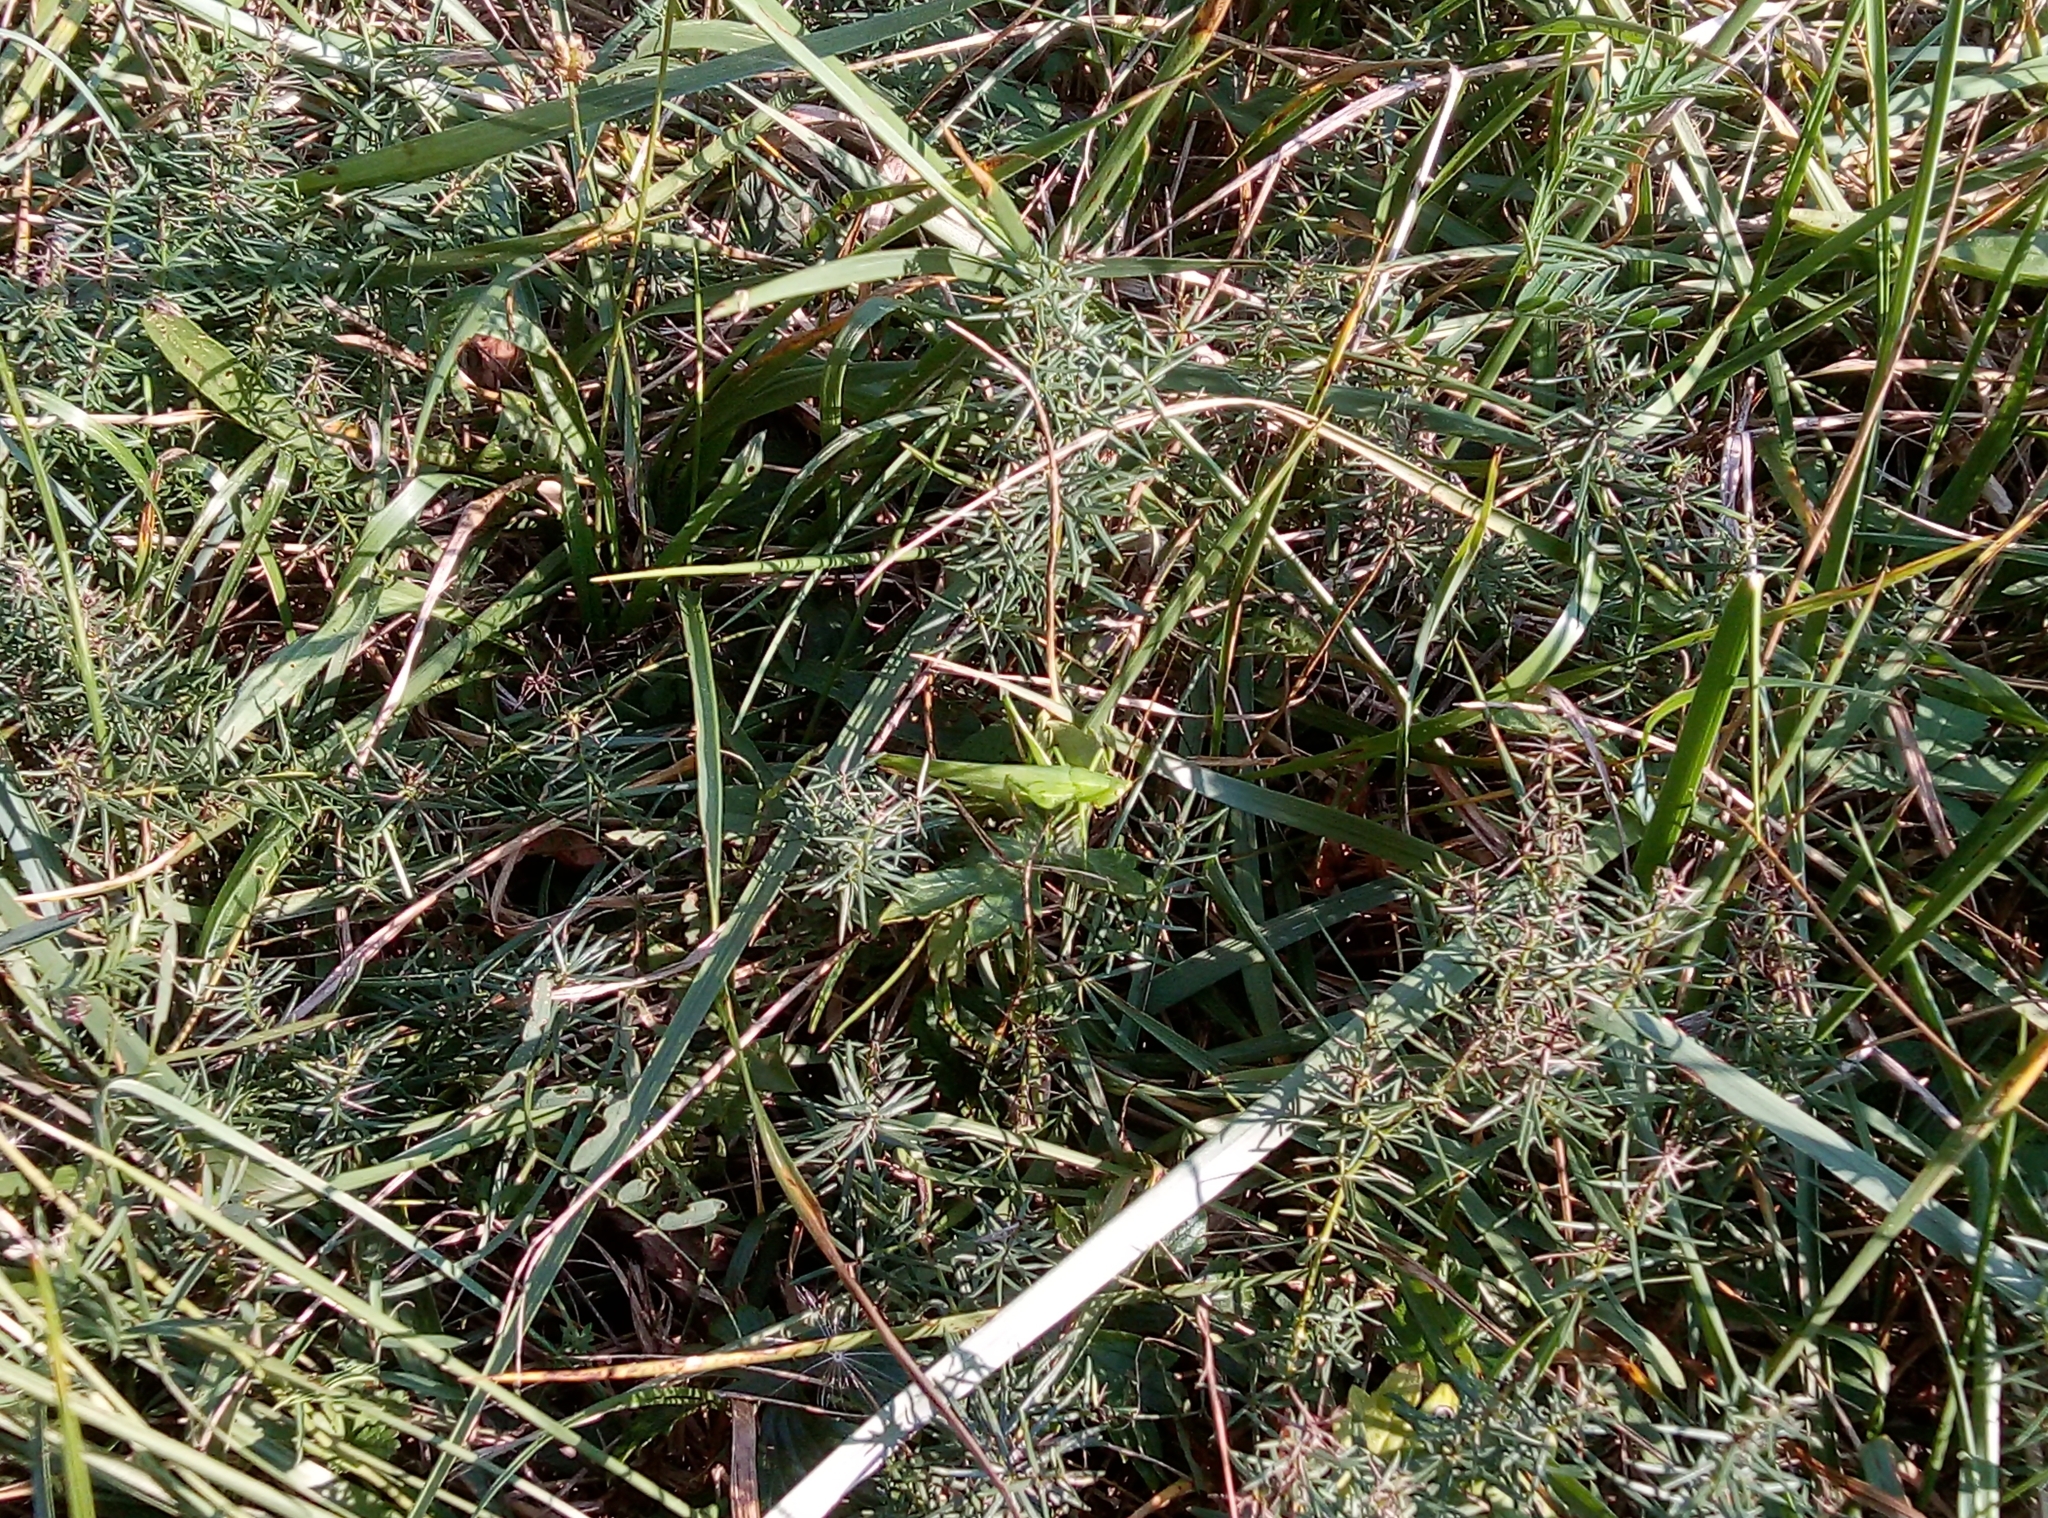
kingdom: Animalia
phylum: Arthropoda
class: Insecta
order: Orthoptera
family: Tettigoniidae
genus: Ruspolia
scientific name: Ruspolia nitidula
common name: Large conehead
